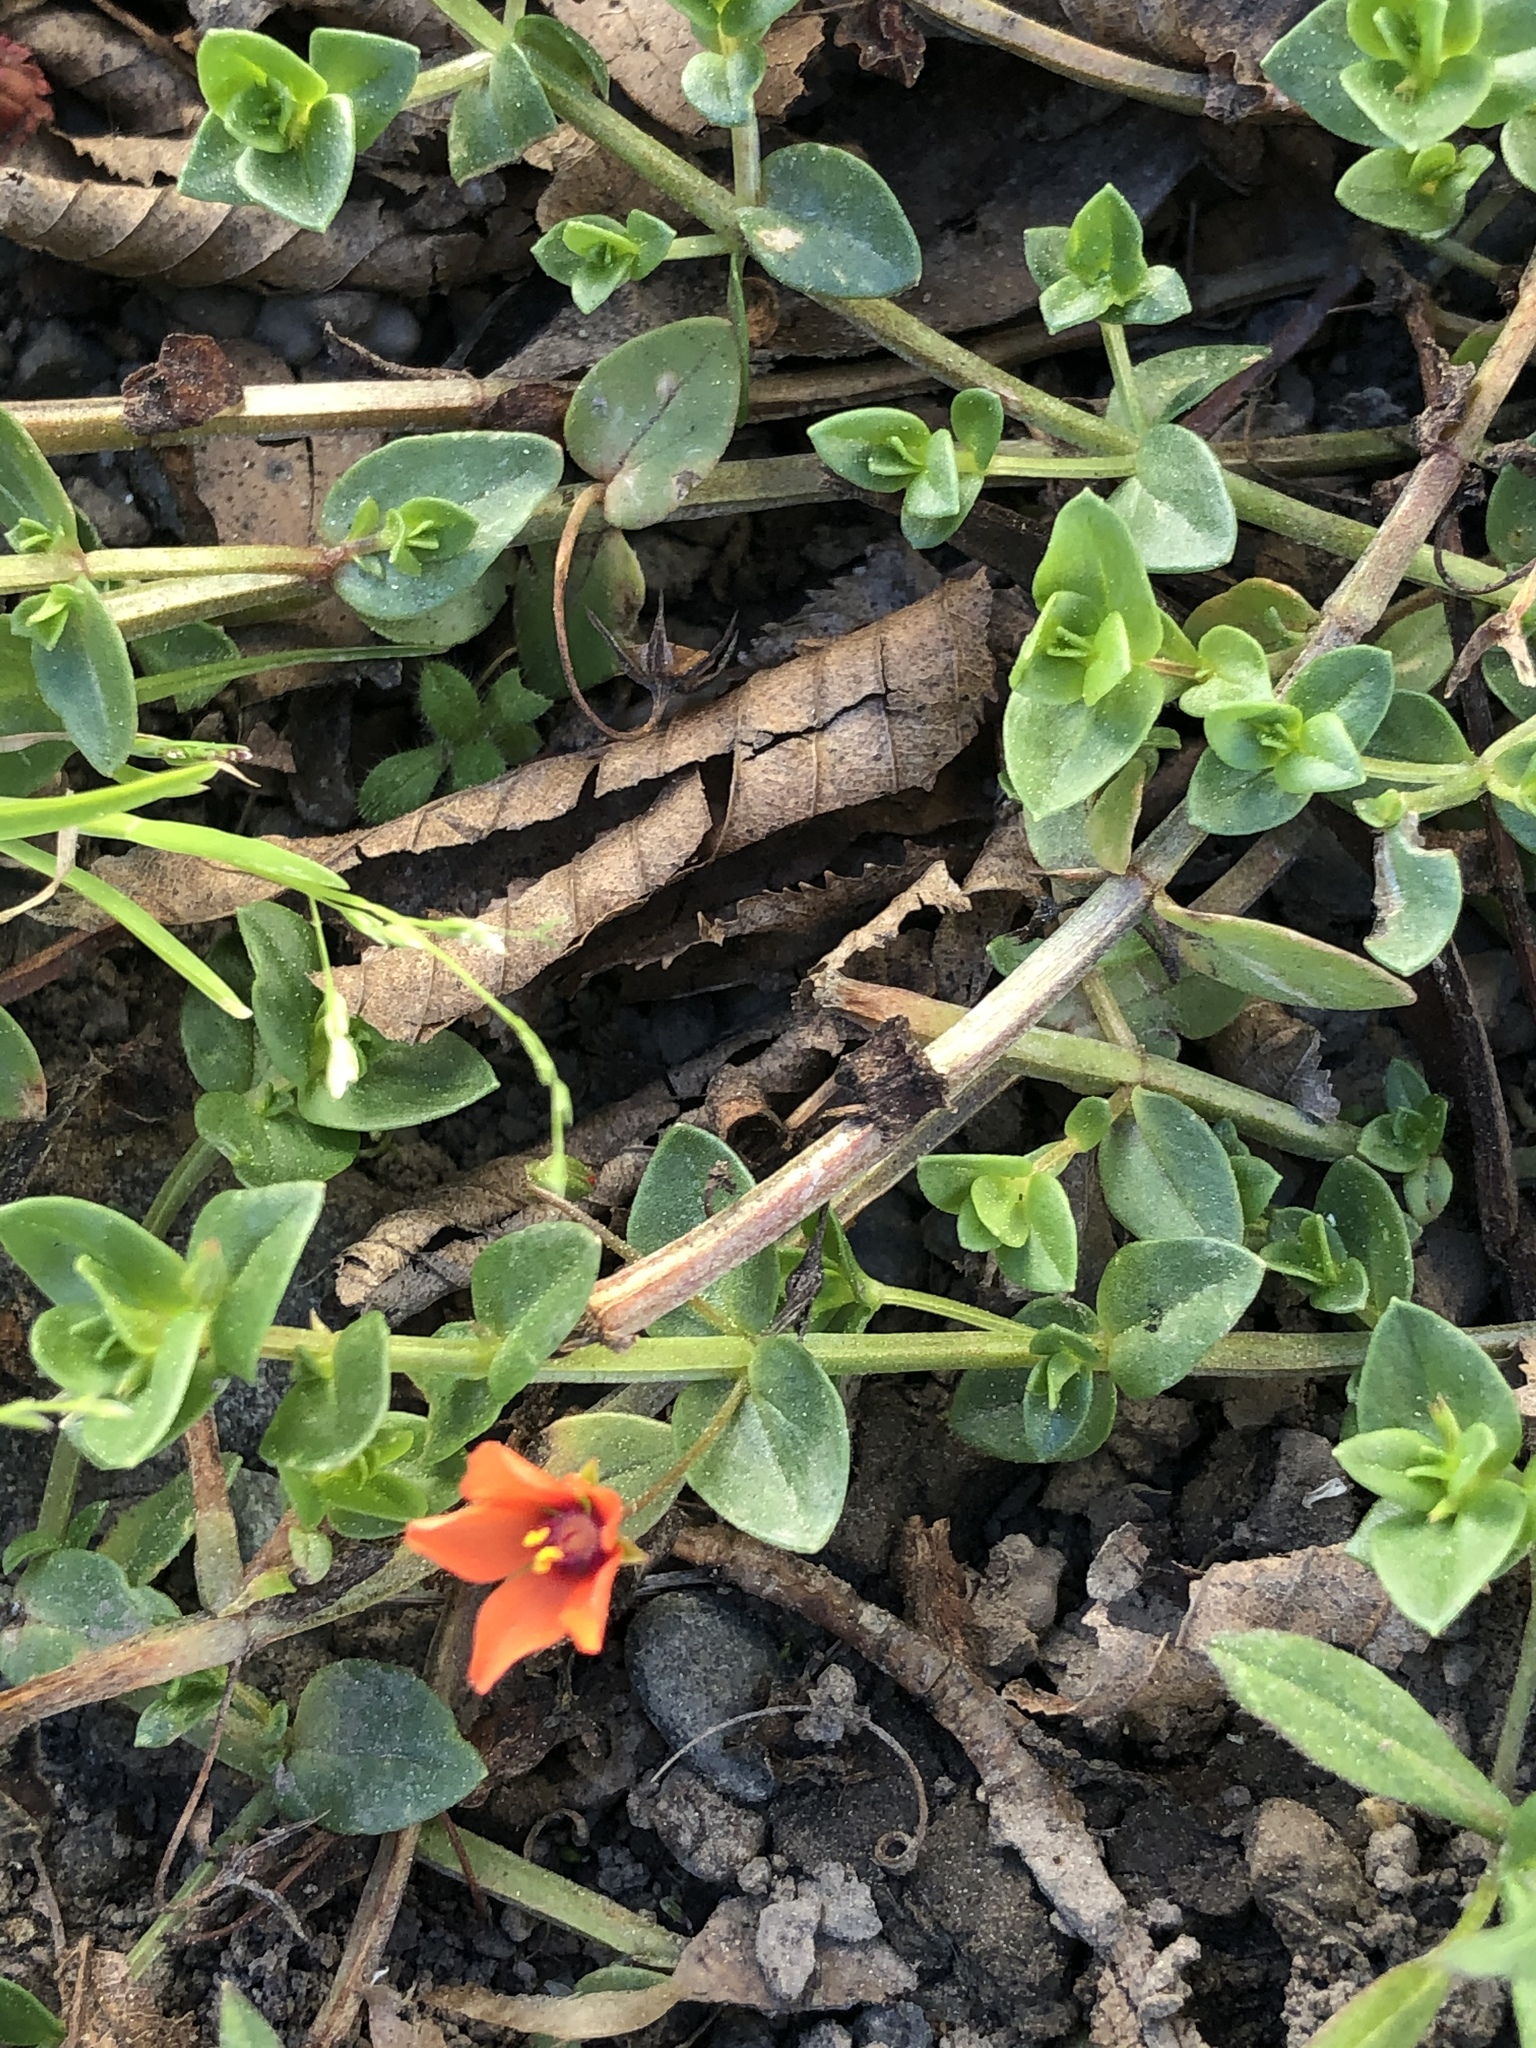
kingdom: Plantae
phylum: Tracheophyta
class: Magnoliopsida
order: Ericales
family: Primulaceae
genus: Lysimachia
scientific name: Lysimachia arvensis
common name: Scarlet pimpernel
